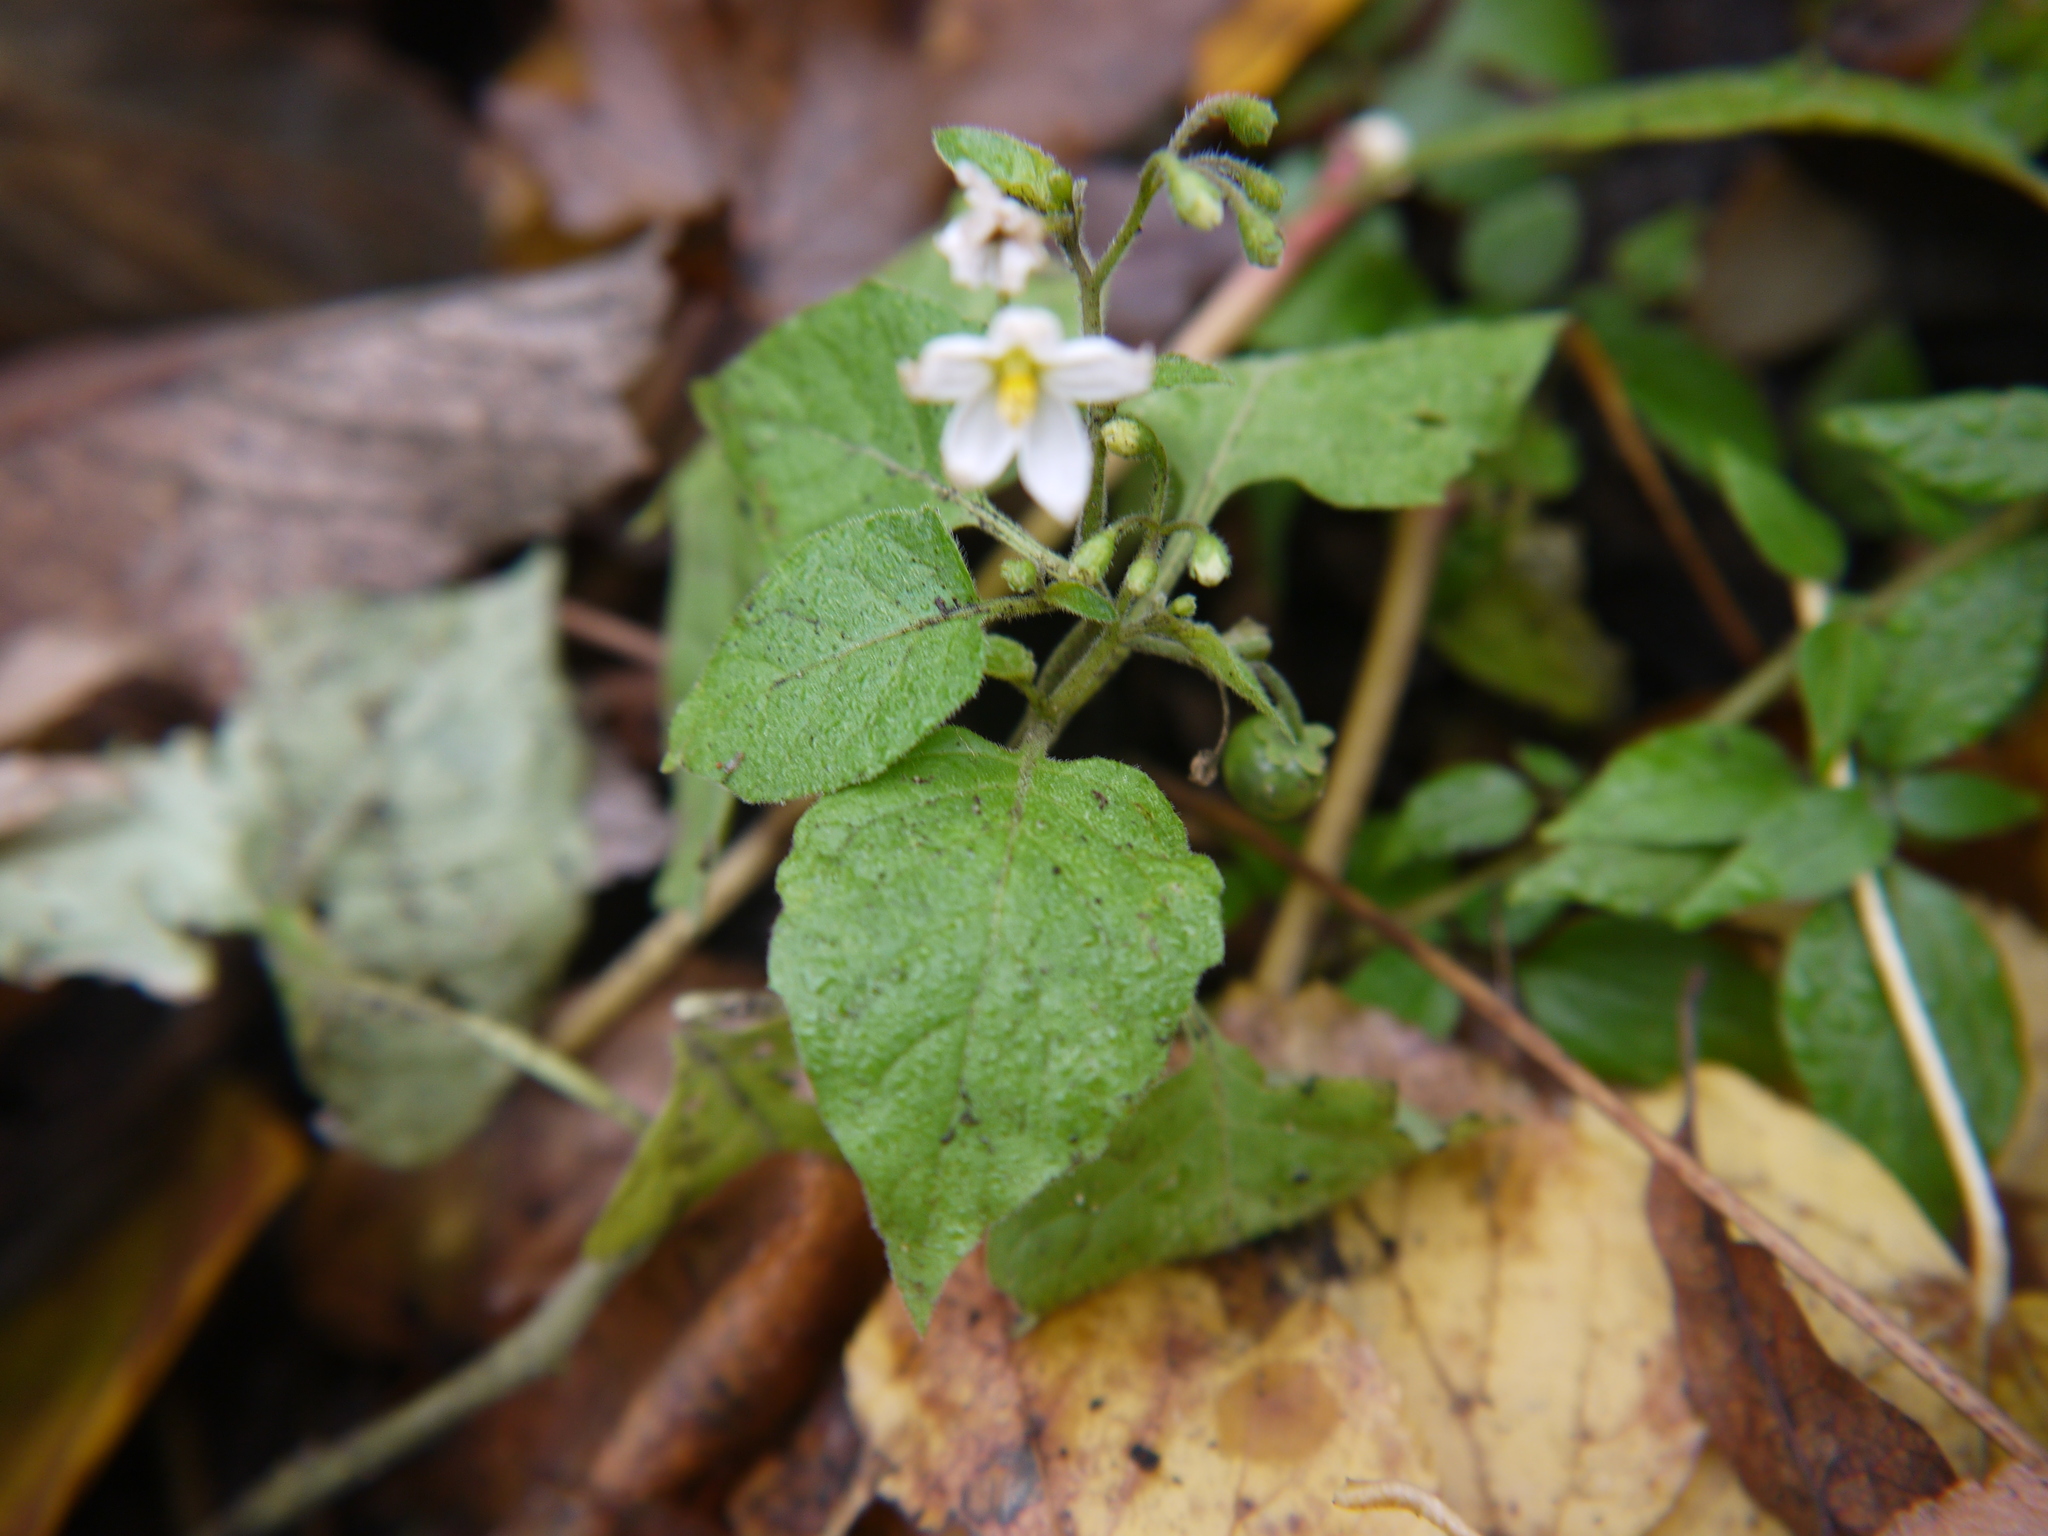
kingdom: Plantae
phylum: Tracheophyta
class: Magnoliopsida
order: Solanales
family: Solanaceae
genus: Solanum
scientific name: Solanum nigrum
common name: Black nightshade
